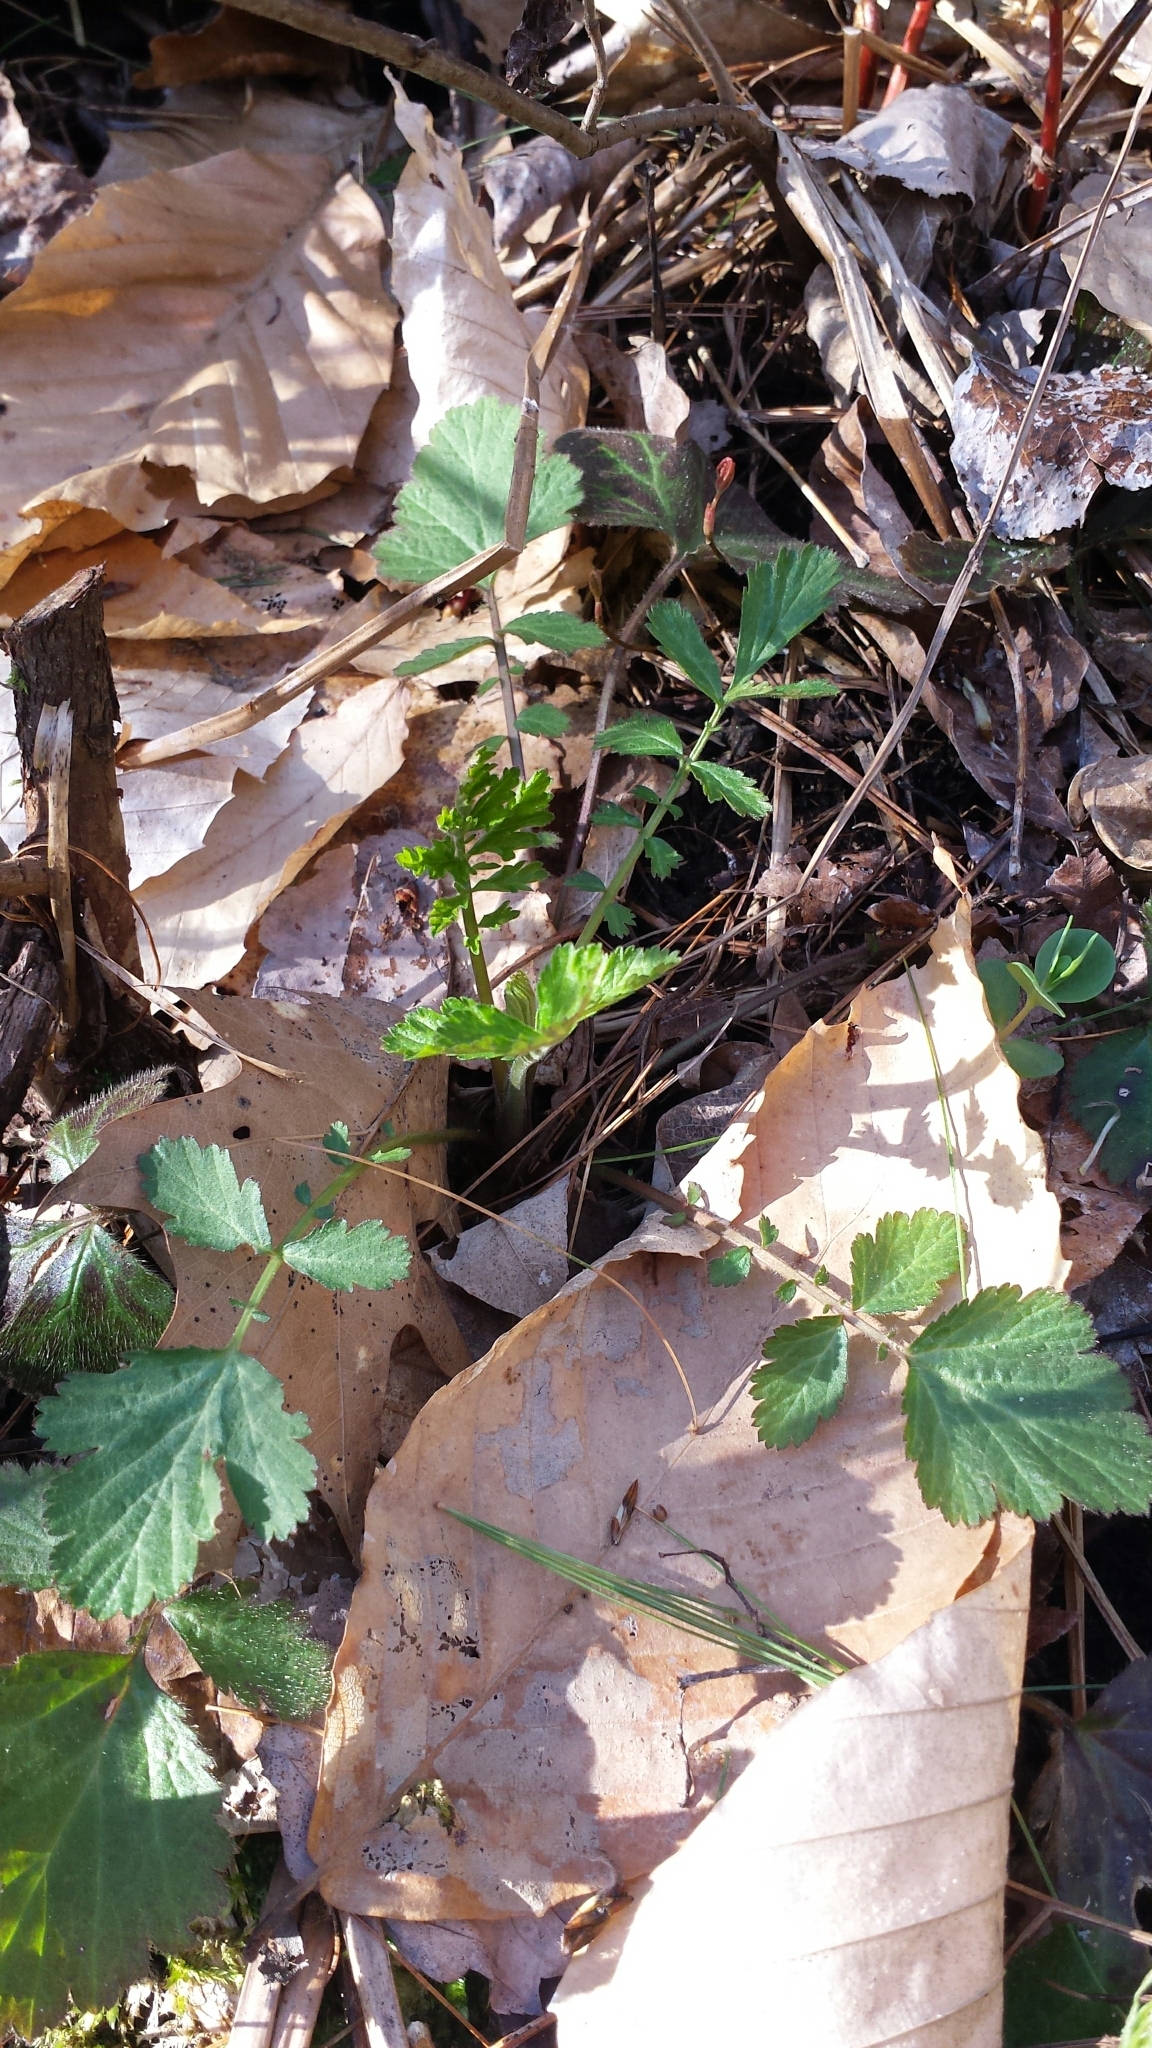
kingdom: Plantae
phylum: Tracheophyta
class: Magnoliopsida
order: Rosales
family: Rosaceae
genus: Geum
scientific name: Geum canadense
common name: White avens
